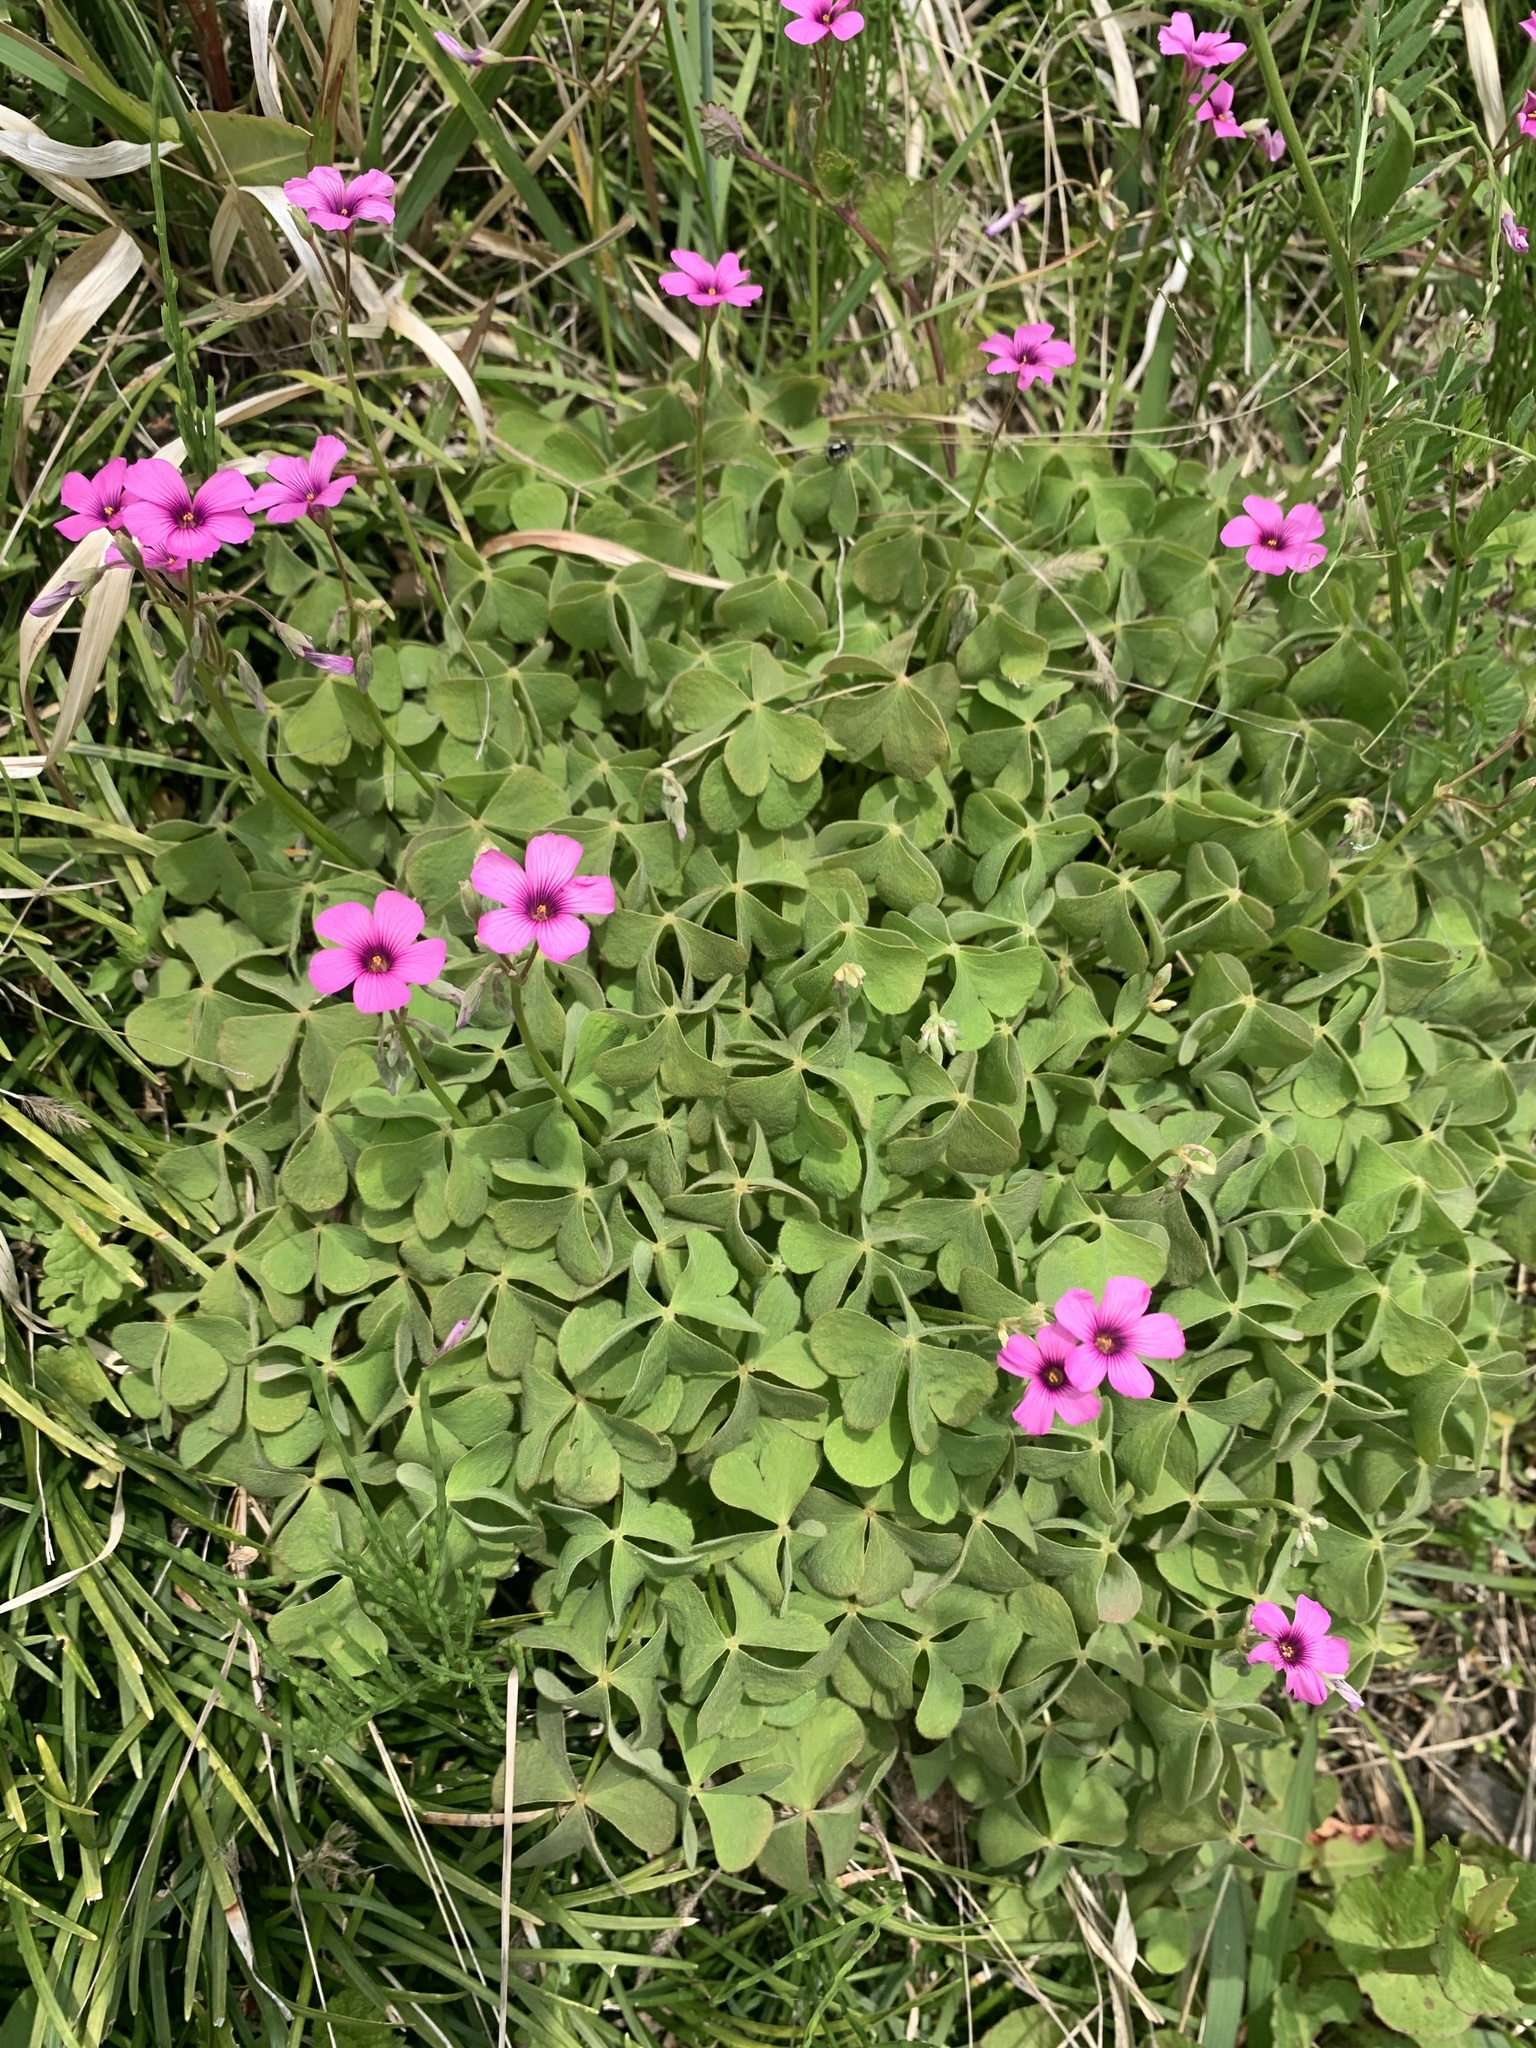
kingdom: Plantae
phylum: Tracheophyta
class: Magnoliopsida
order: Oxalidales
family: Oxalidaceae
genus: Oxalis
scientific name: Oxalis articulata
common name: Pink-sorrel
